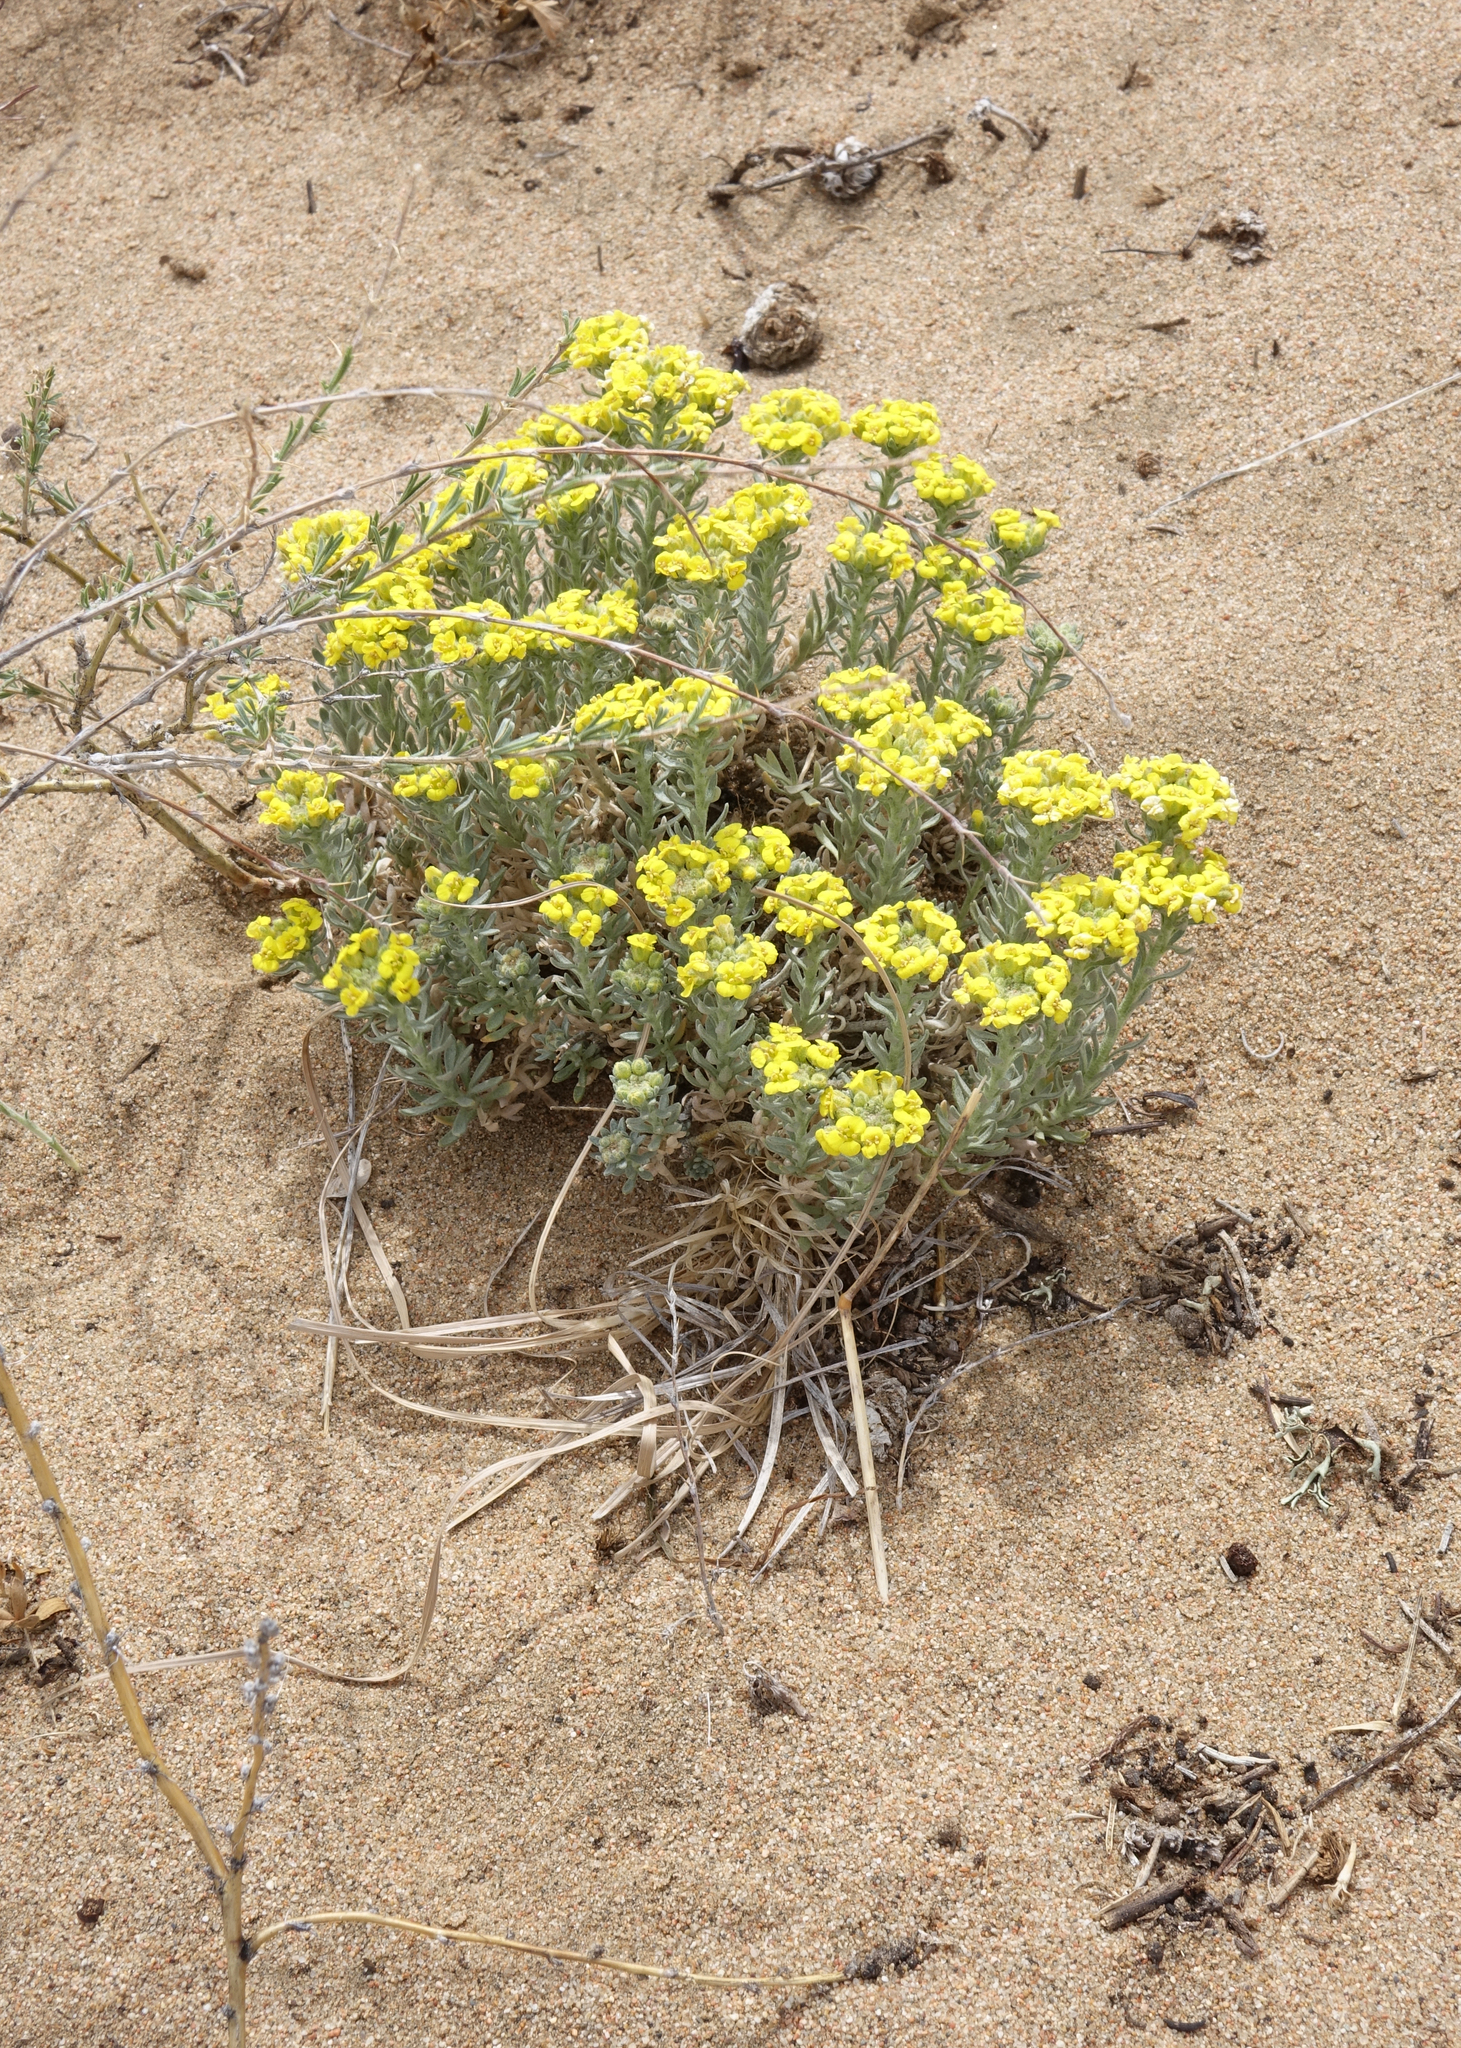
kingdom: Plantae
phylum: Tracheophyta
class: Magnoliopsida
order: Brassicales
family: Brassicaceae
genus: Alyssum
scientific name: Alyssum lenense
